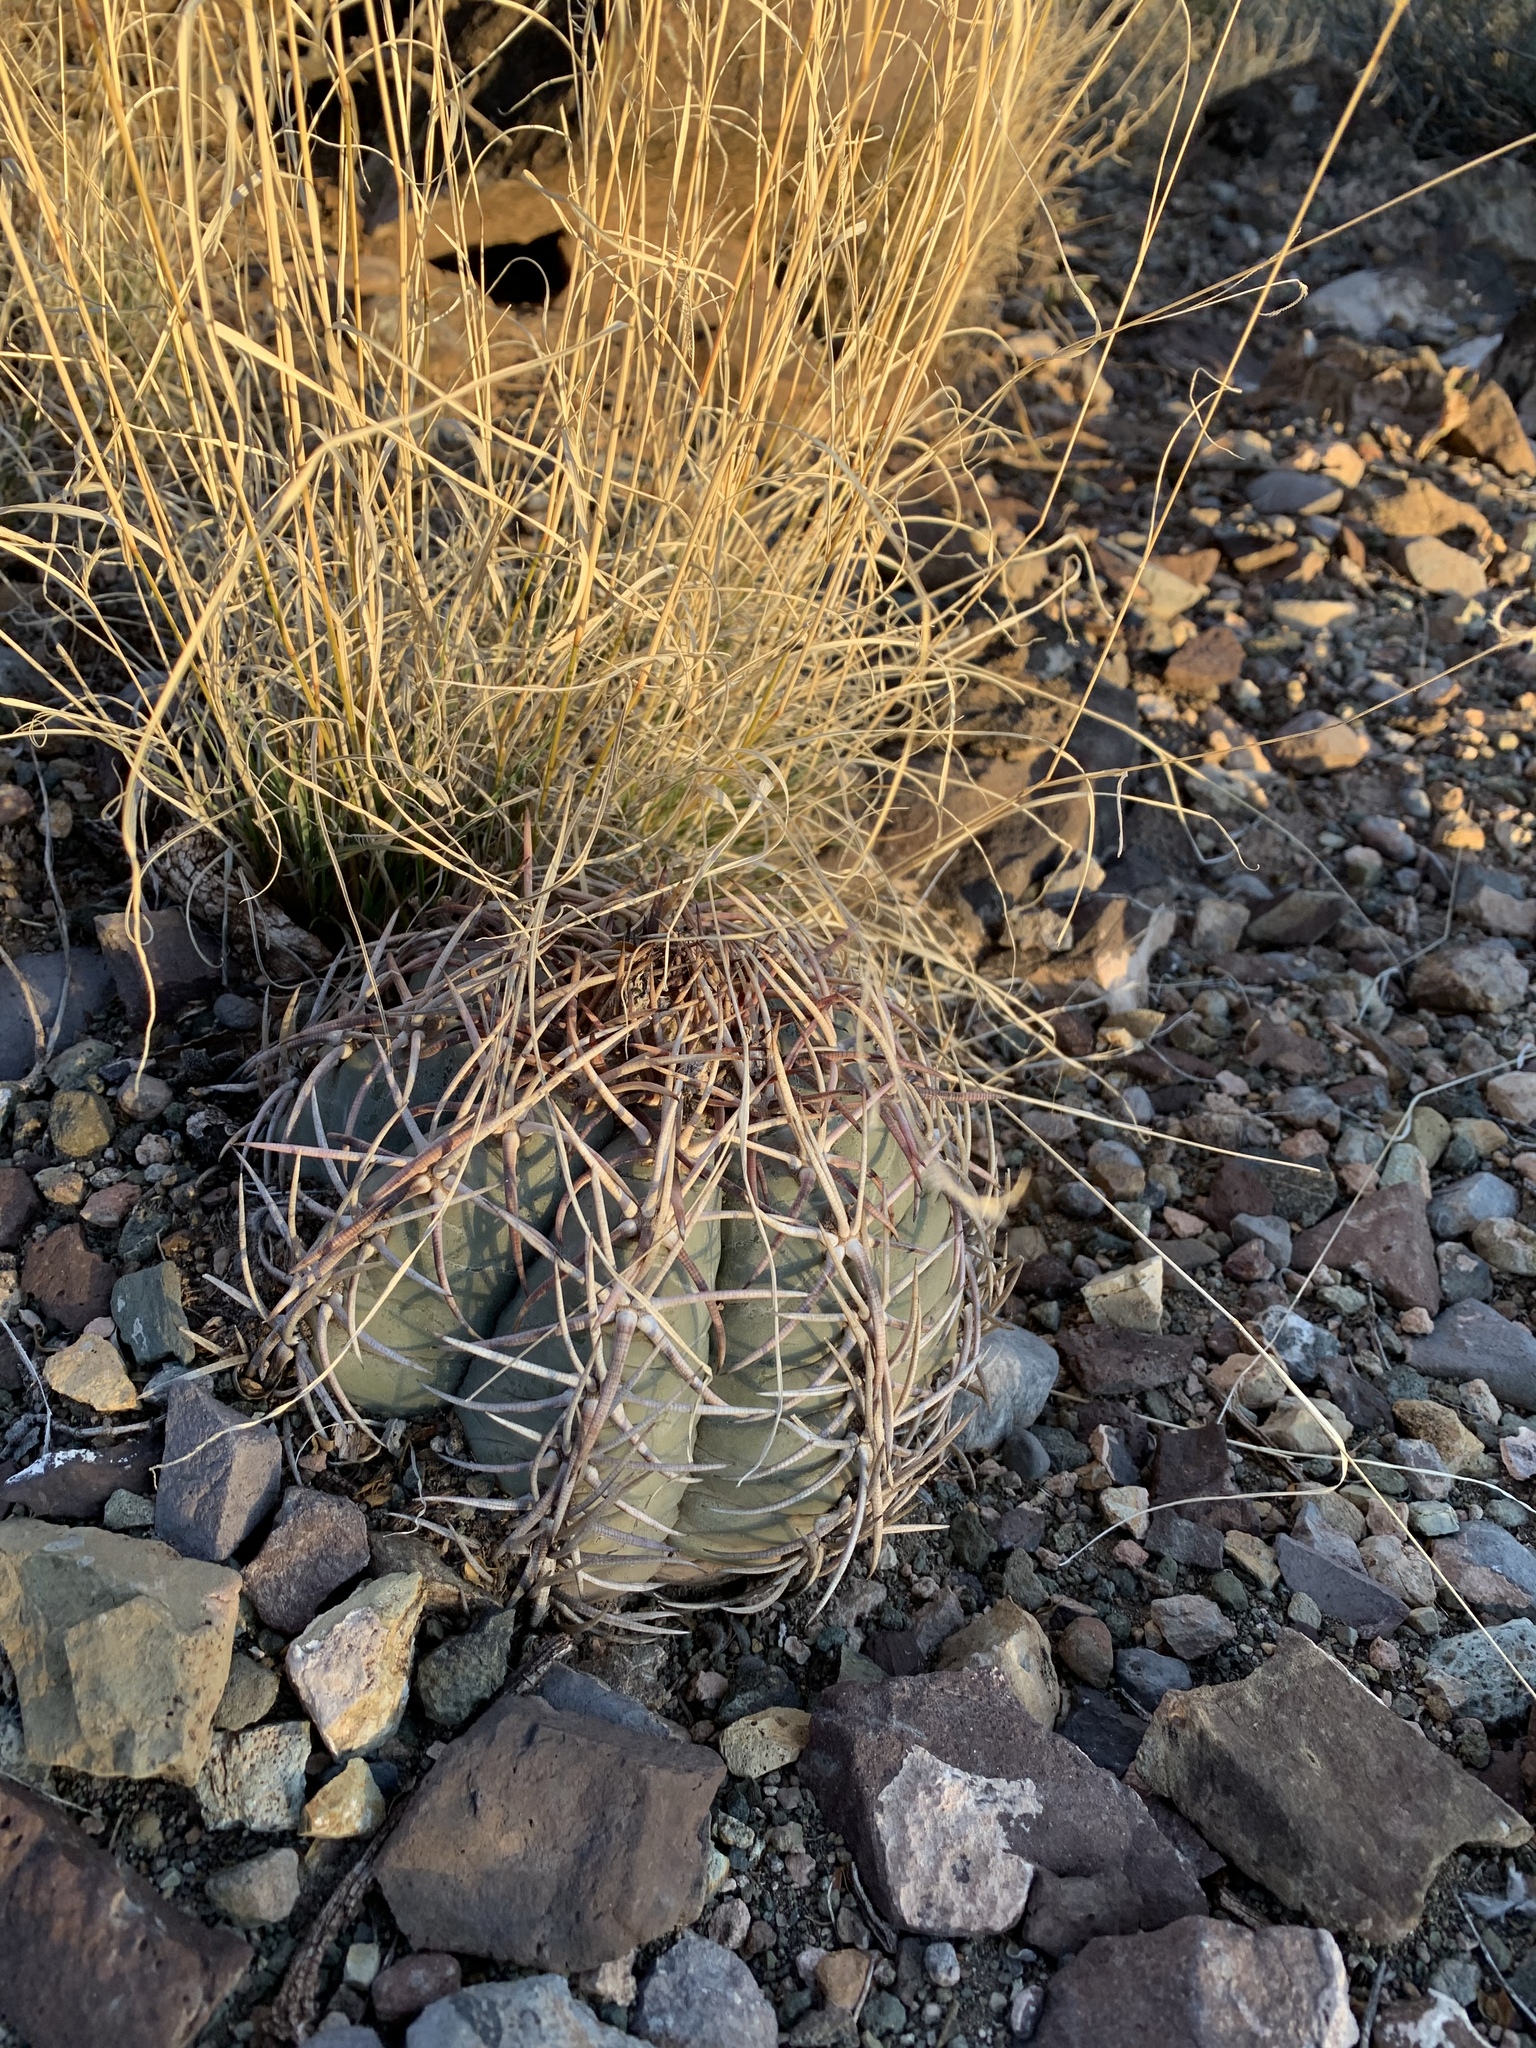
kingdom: Plantae
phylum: Tracheophyta
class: Magnoliopsida
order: Caryophyllales
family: Cactaceae
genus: Echinocactus
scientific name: Echinocactus horizonthalonius
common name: Devilshead
